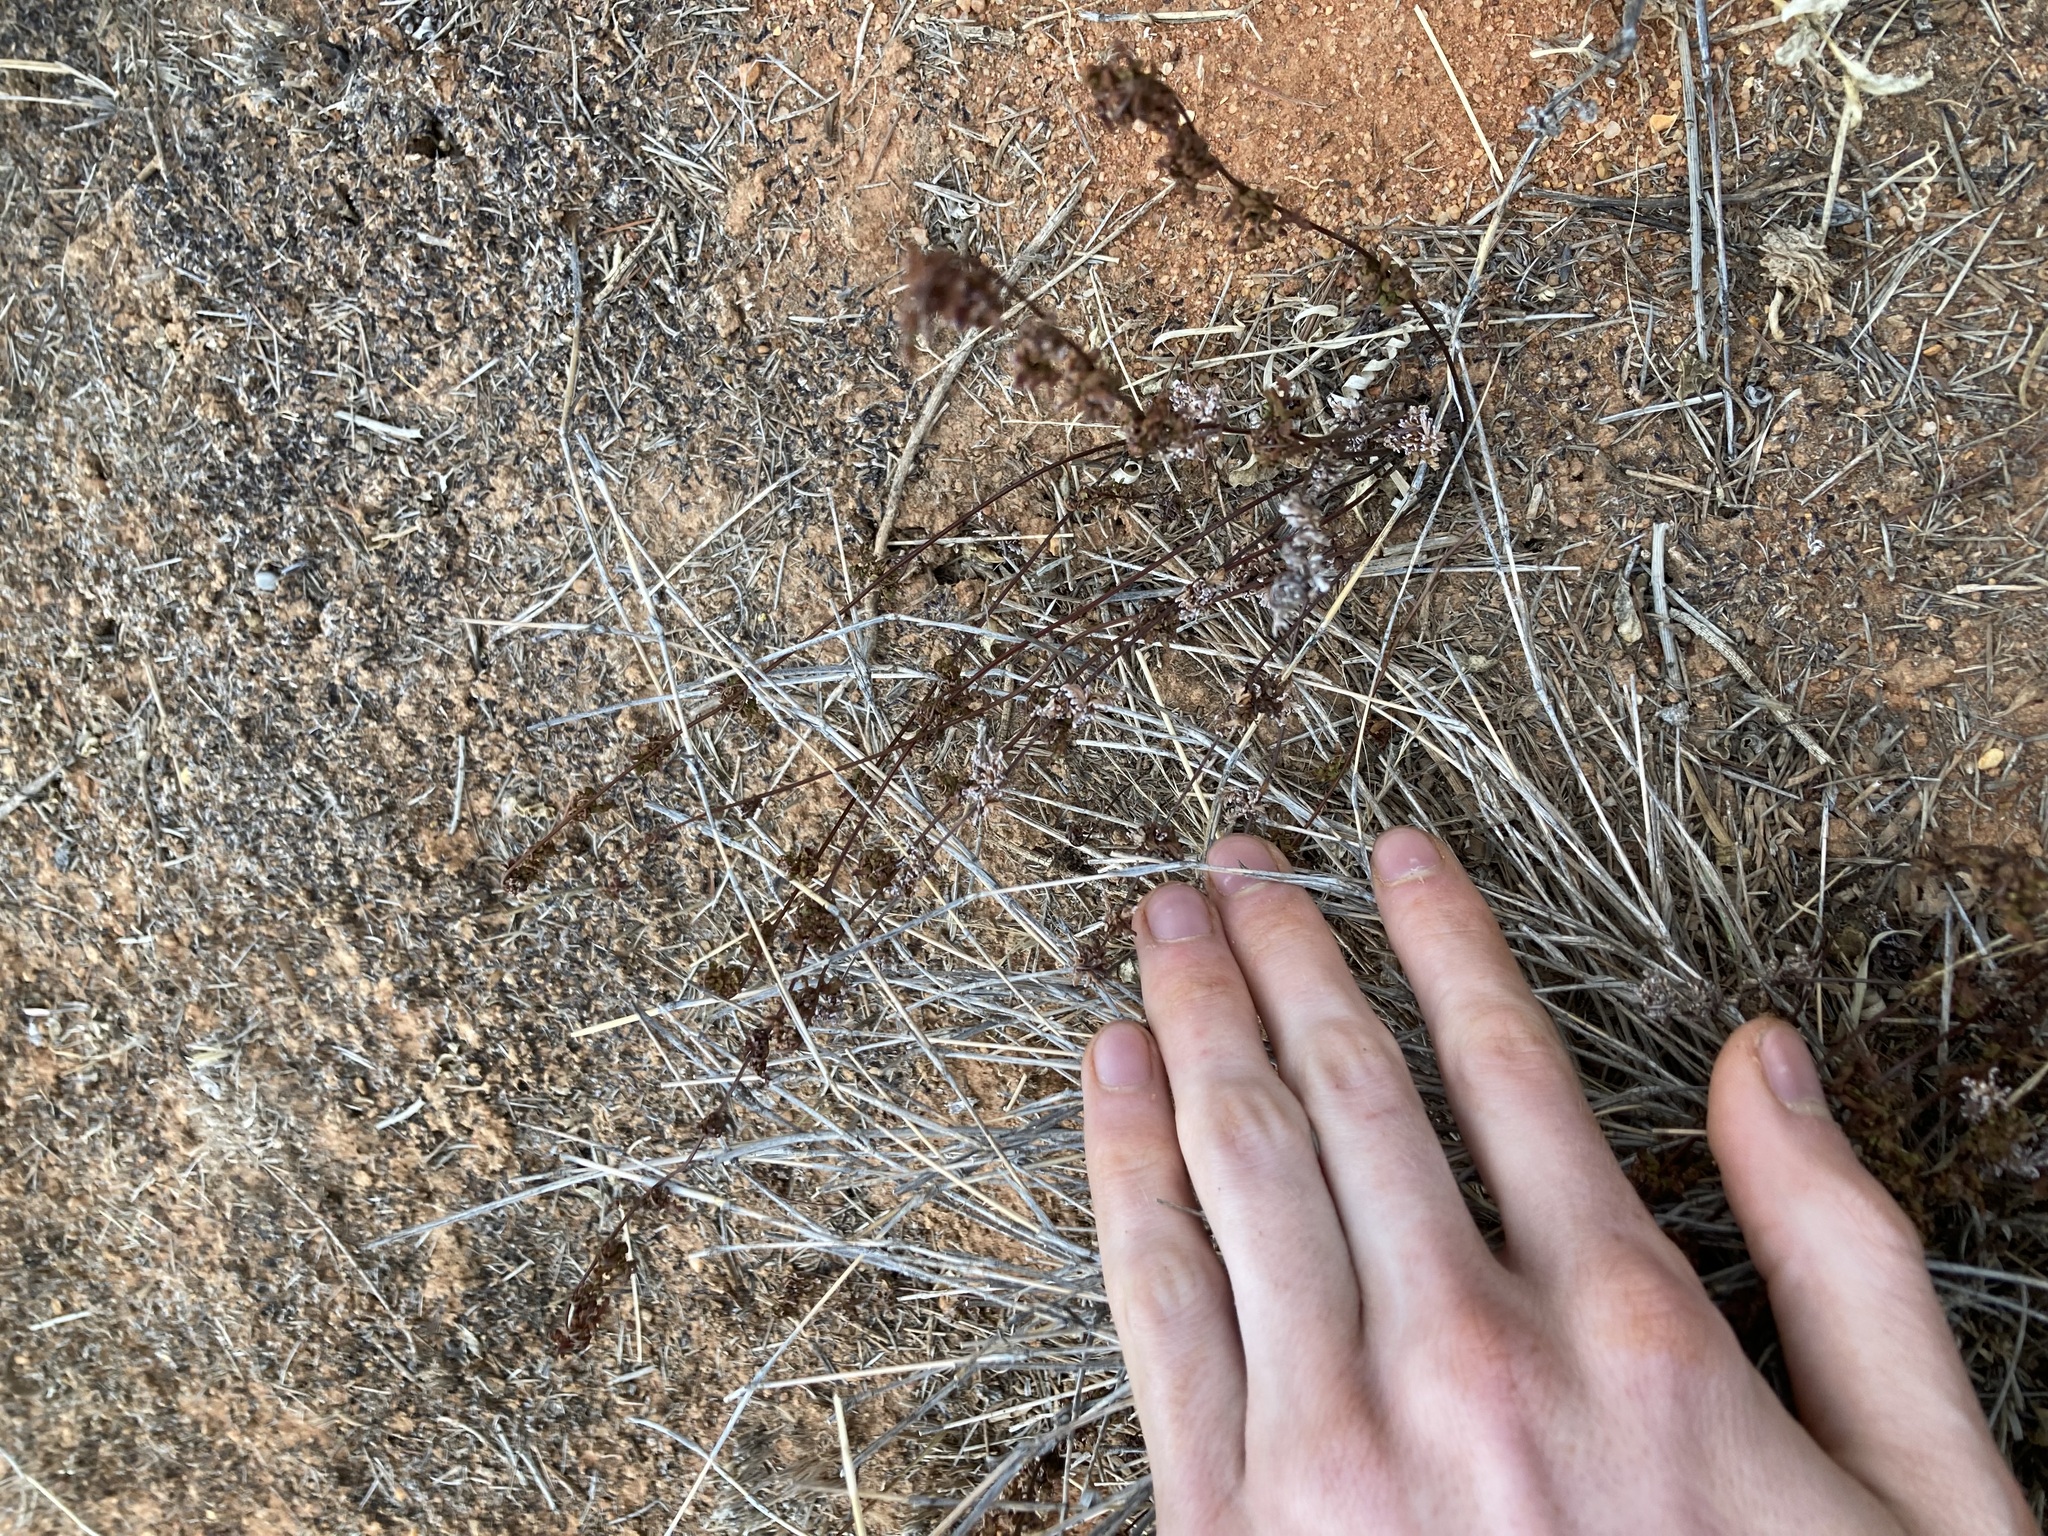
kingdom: Plantae
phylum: Tracheophyta
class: Polypodiopsida
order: Polypodiales
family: Pteridaceae
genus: Cheilanthes
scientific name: Cheilanthes sieberi
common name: Mulga fern
